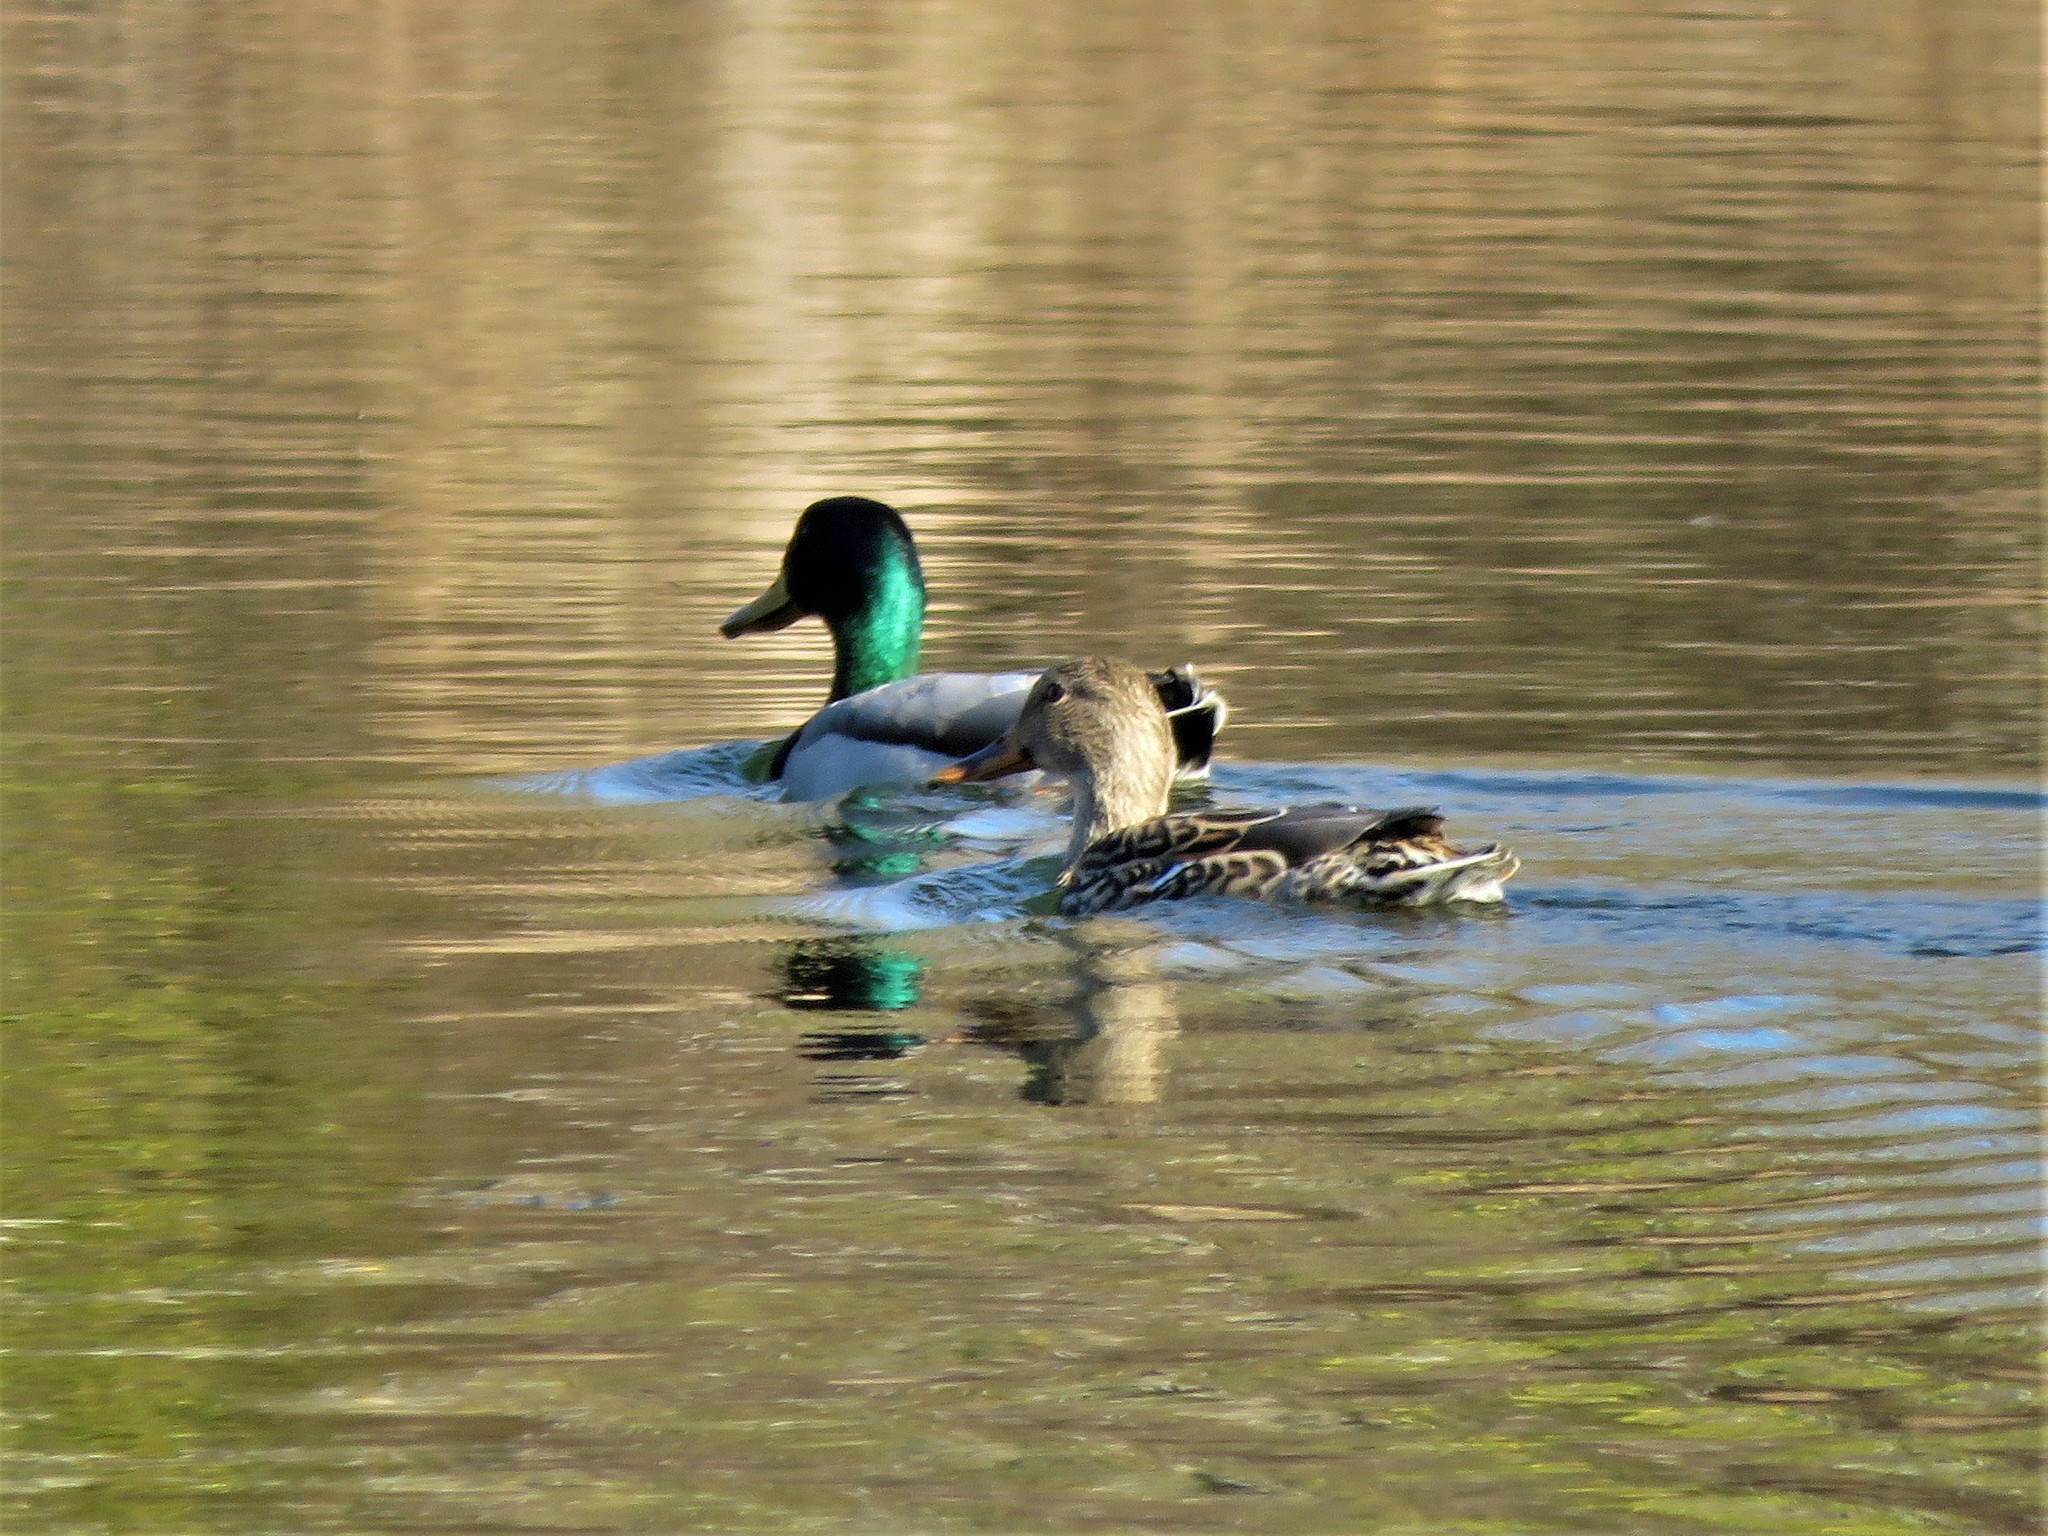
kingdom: Animalia
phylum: Chordata
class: Aves
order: Anseriformes
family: Anatidae
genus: Anas
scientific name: Anas platyrhynchos
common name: Mallard
